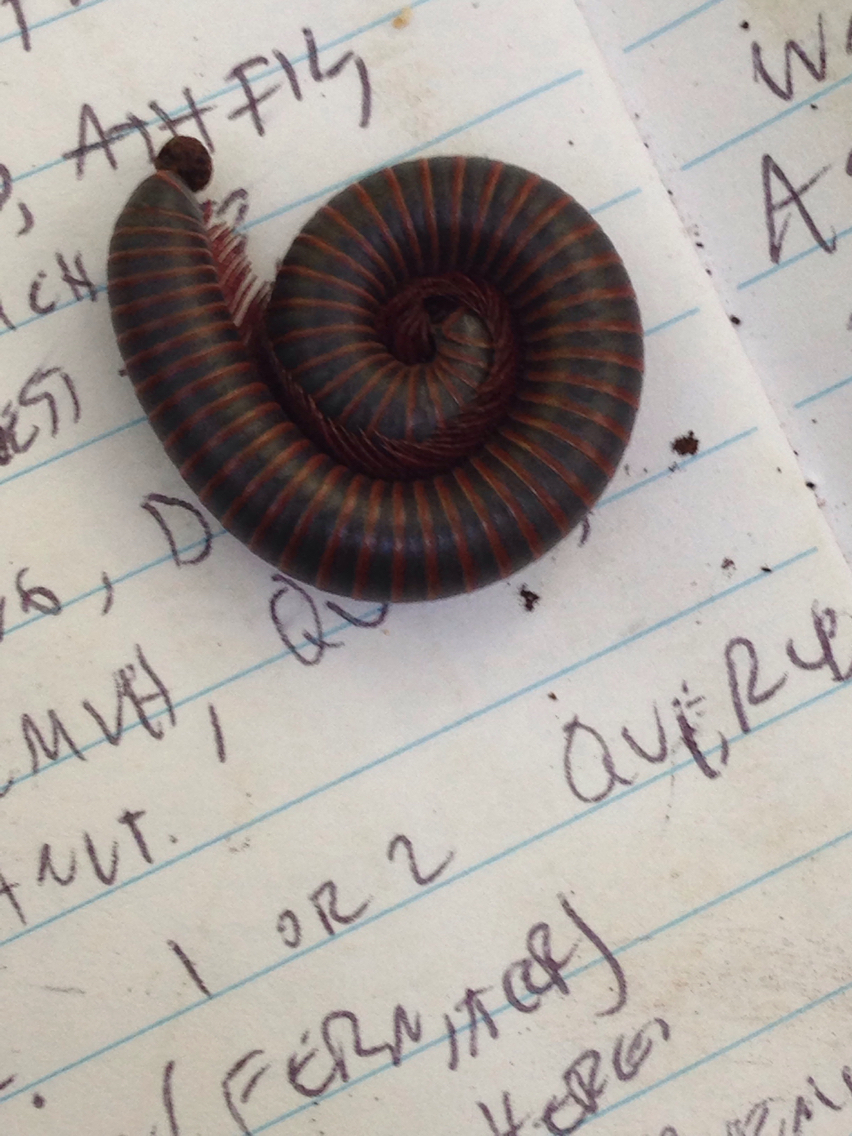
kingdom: Animalia
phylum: Arthropoda
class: Diplopoda
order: Spirobolida
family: Spirobolidae
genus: Narceus
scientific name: Narceus
